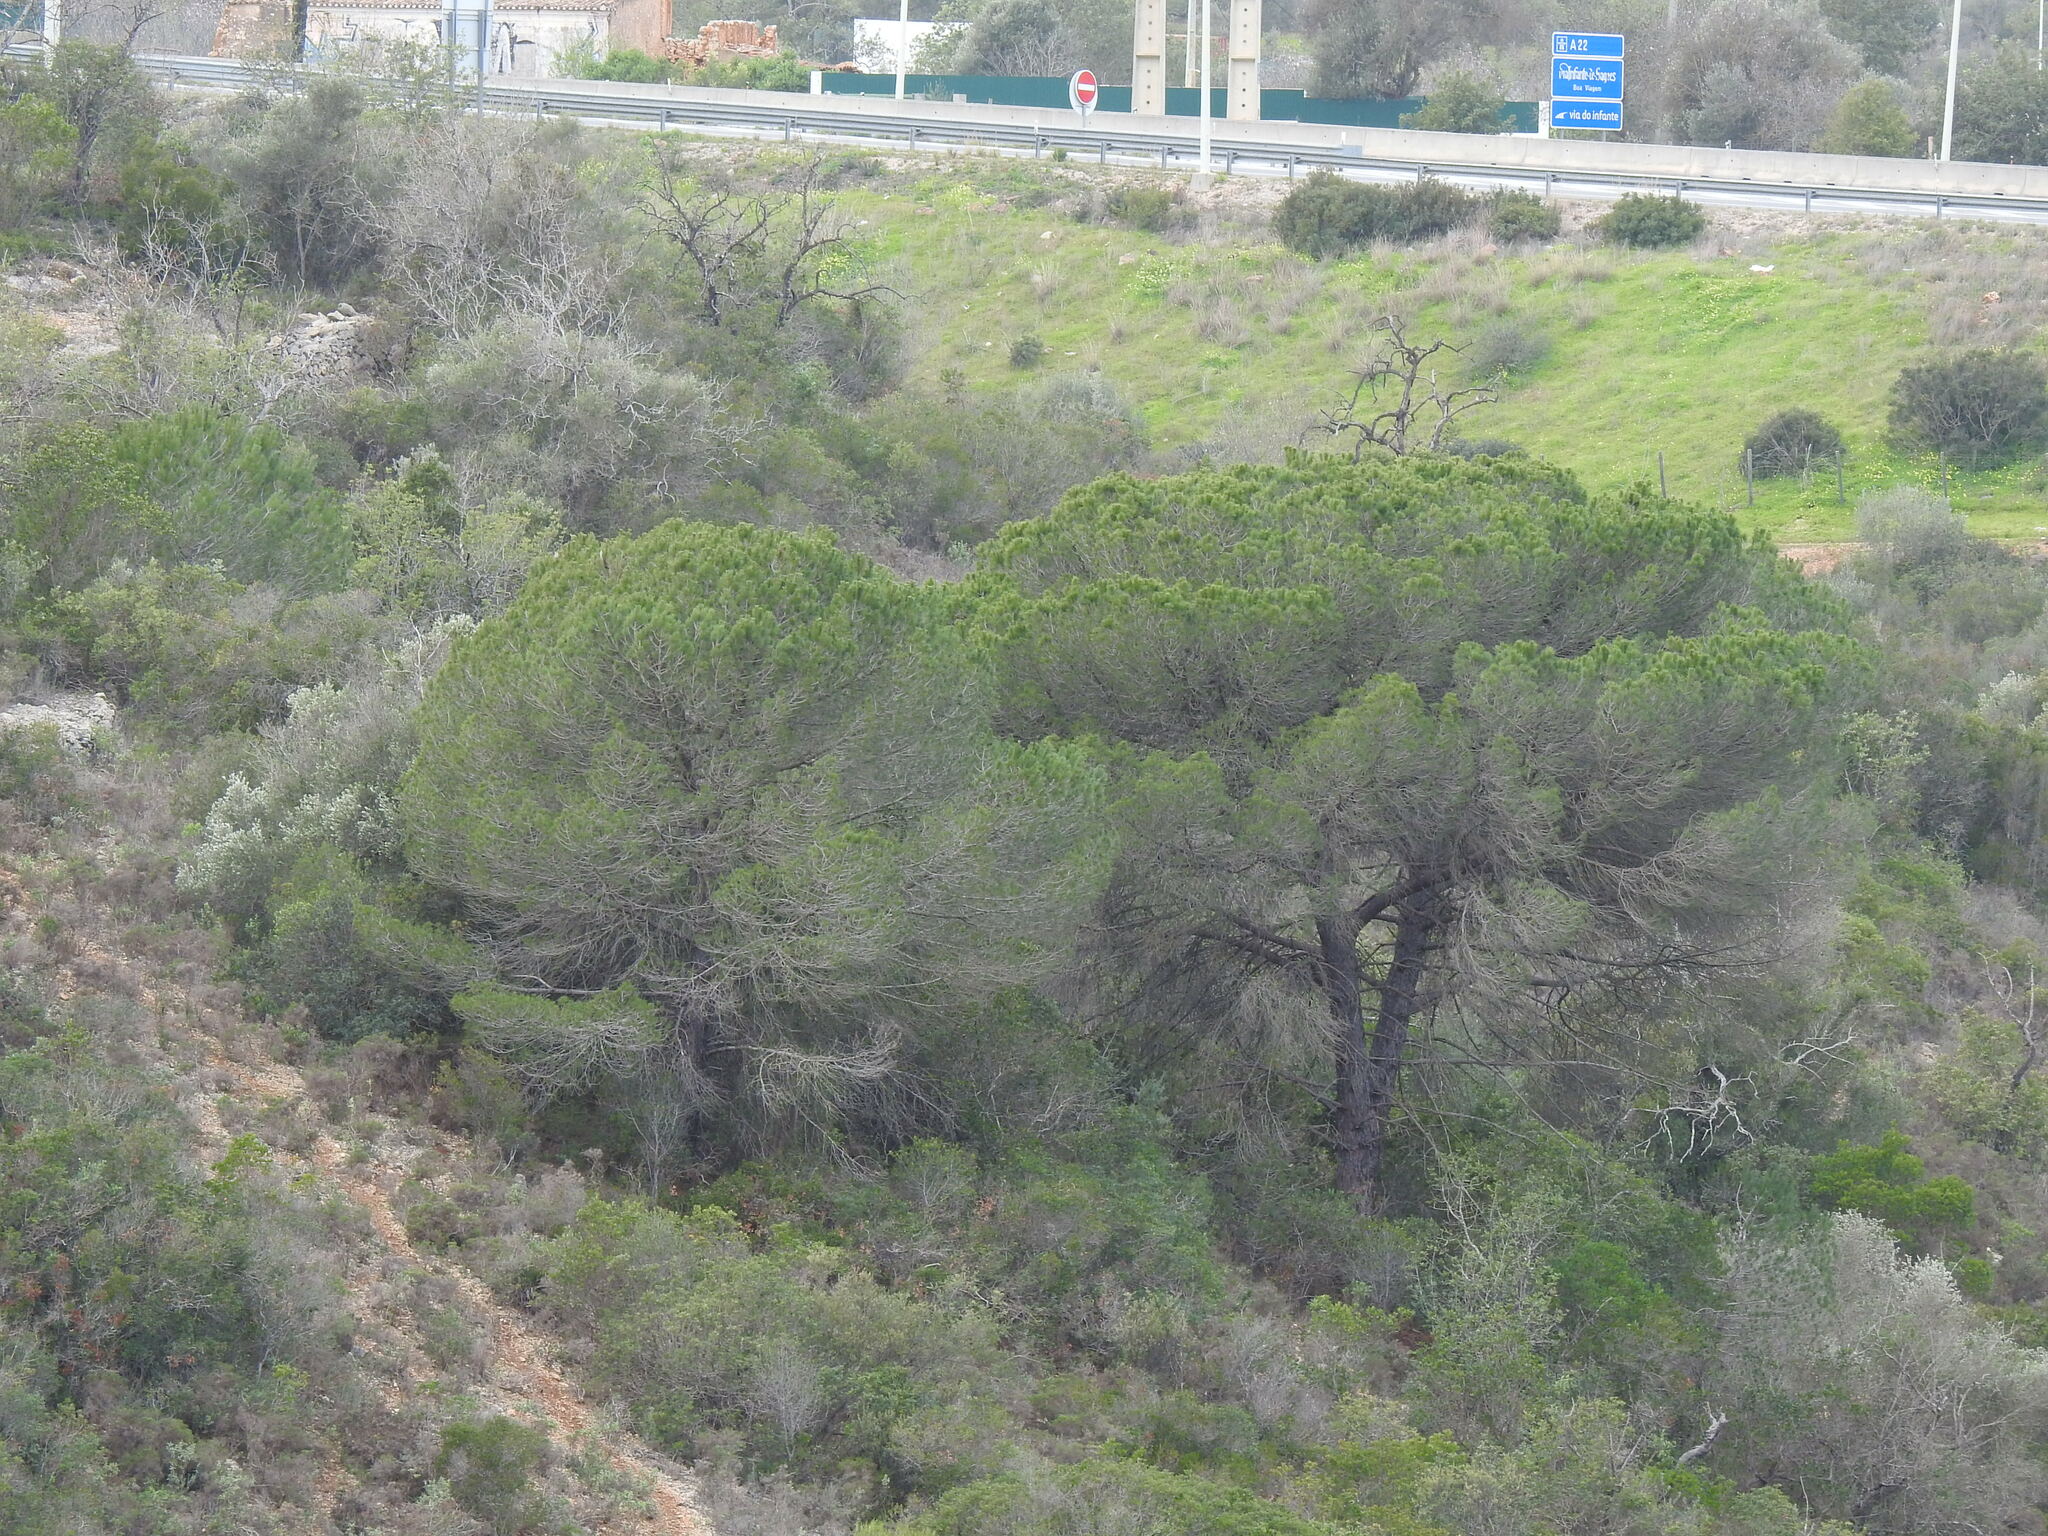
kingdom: Plantae
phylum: Tracheophyta
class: Pinopsida
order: Pinales
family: Pinaceae
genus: Pinus
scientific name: Pinus pinea
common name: Italian stone pine
